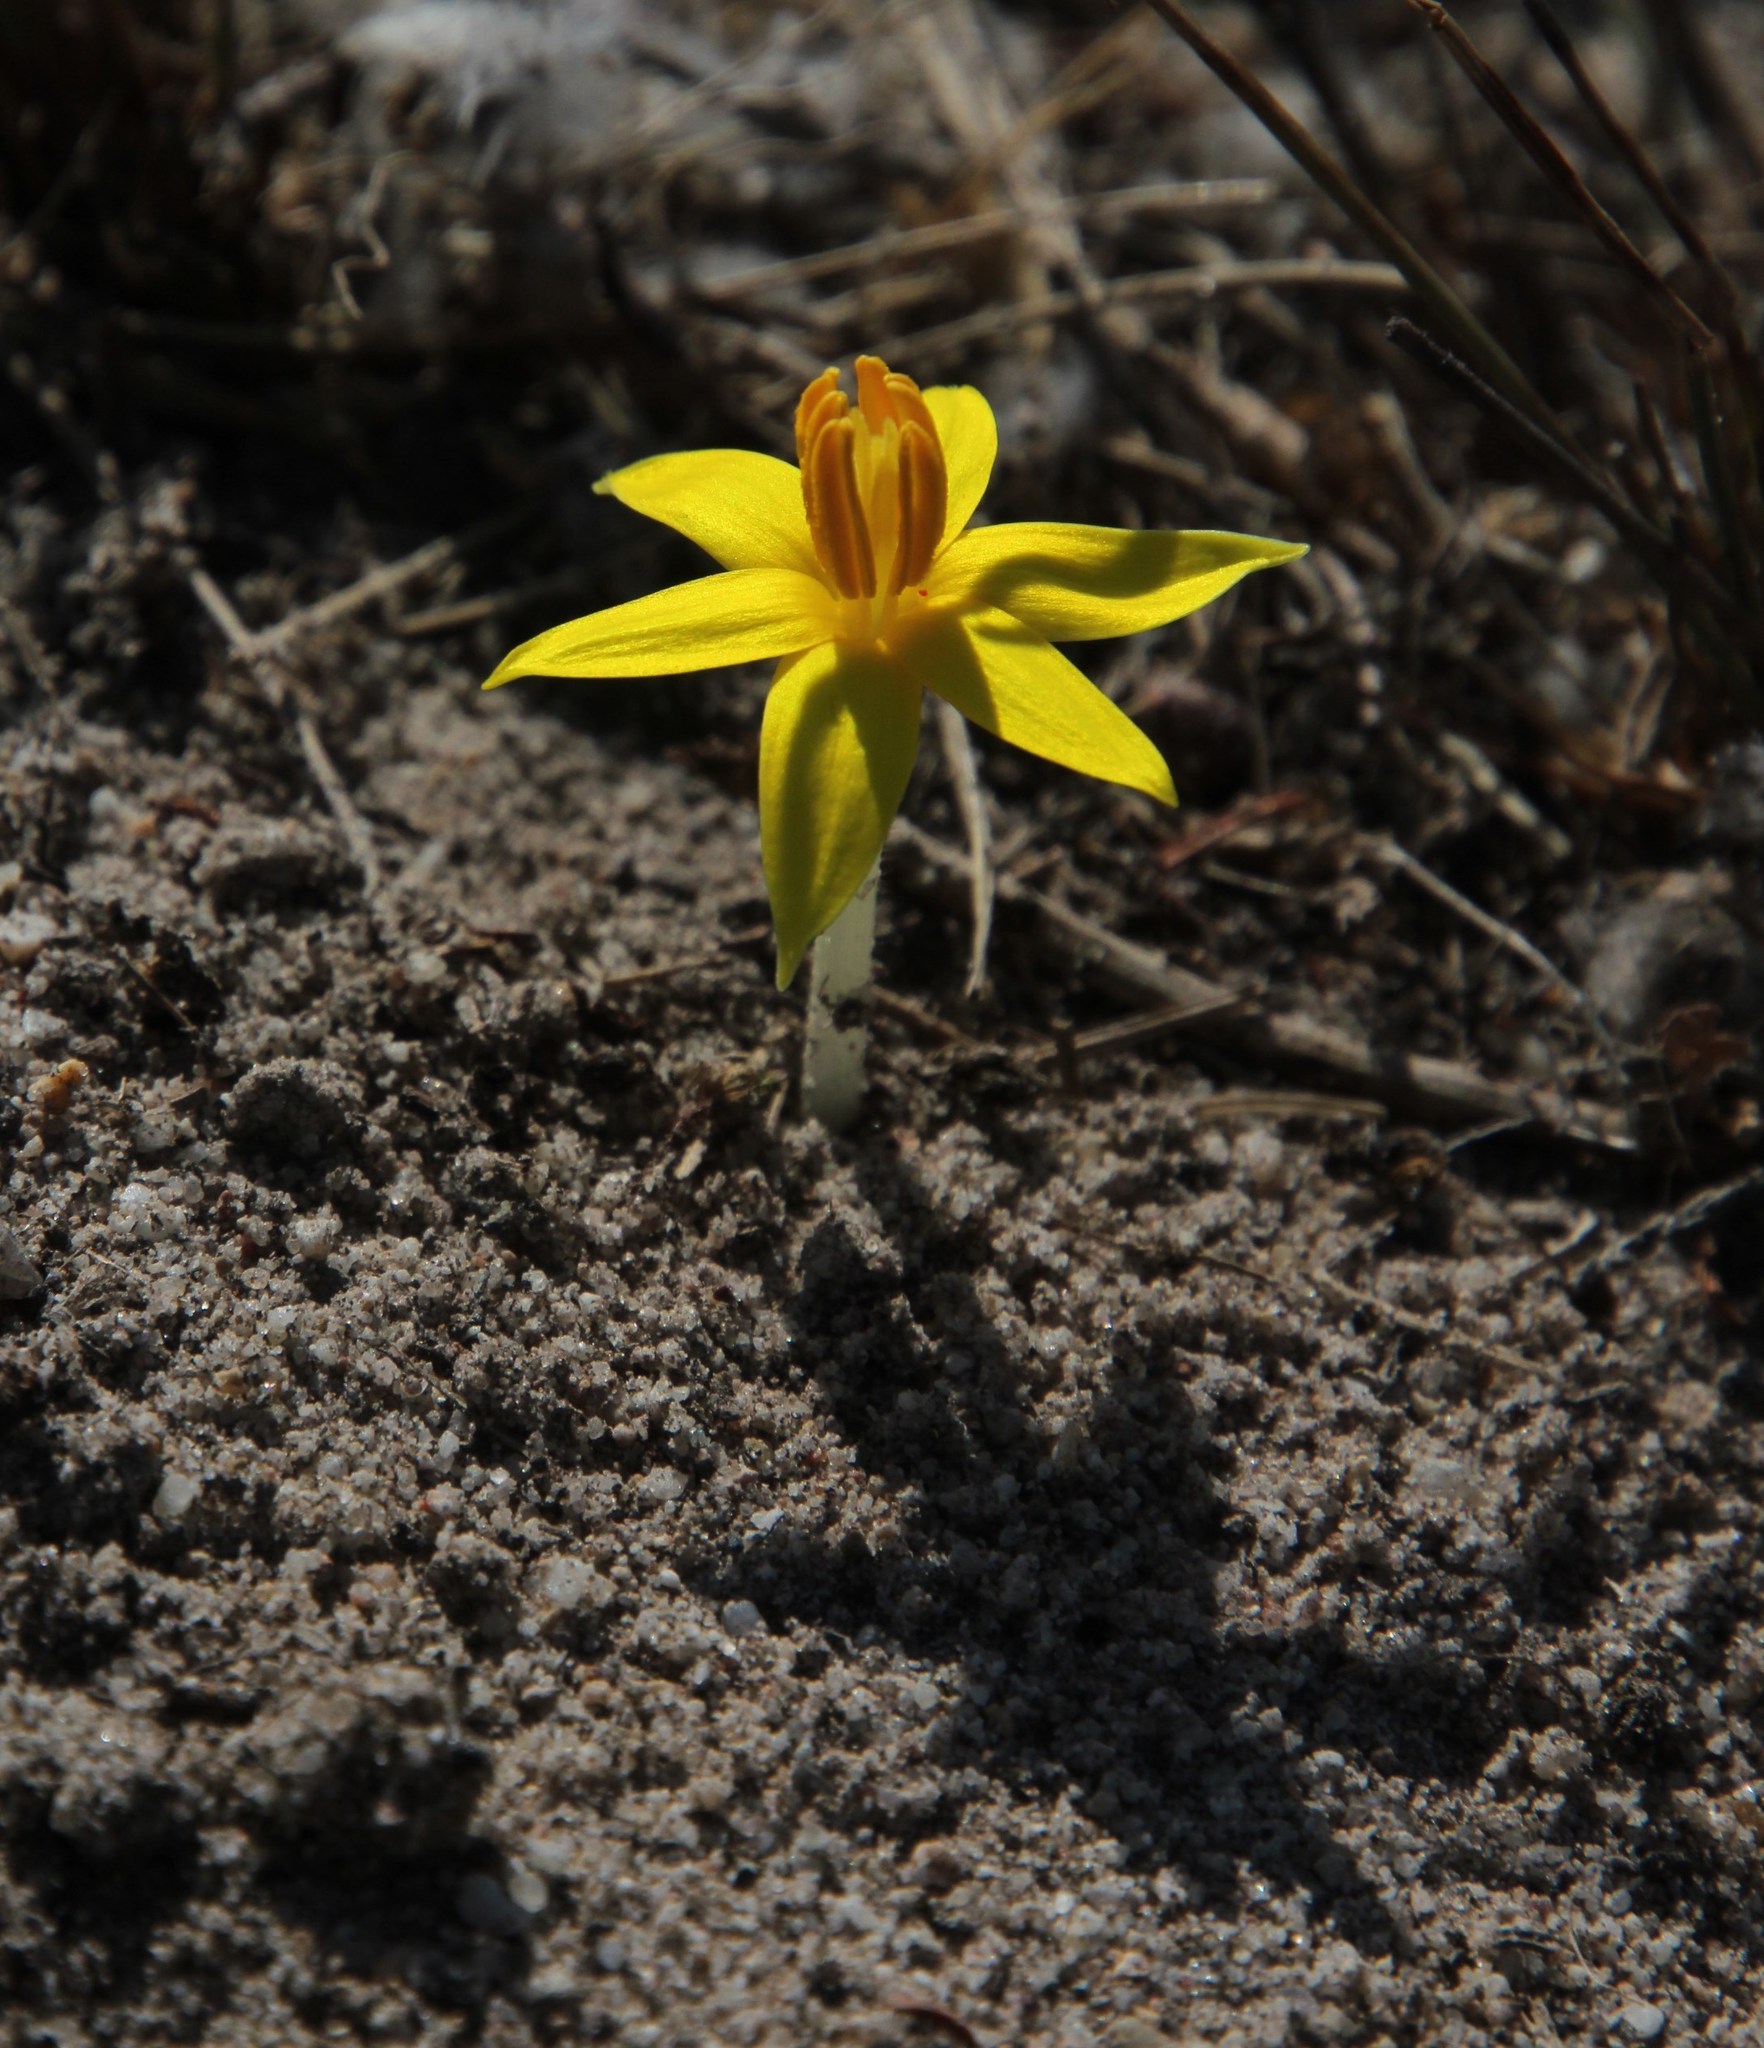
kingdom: Plantae
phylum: Tracheophyta
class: Liliopsida
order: Asparagales
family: Hypoxidaceae
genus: Empodium
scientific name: Empodium plicatum
